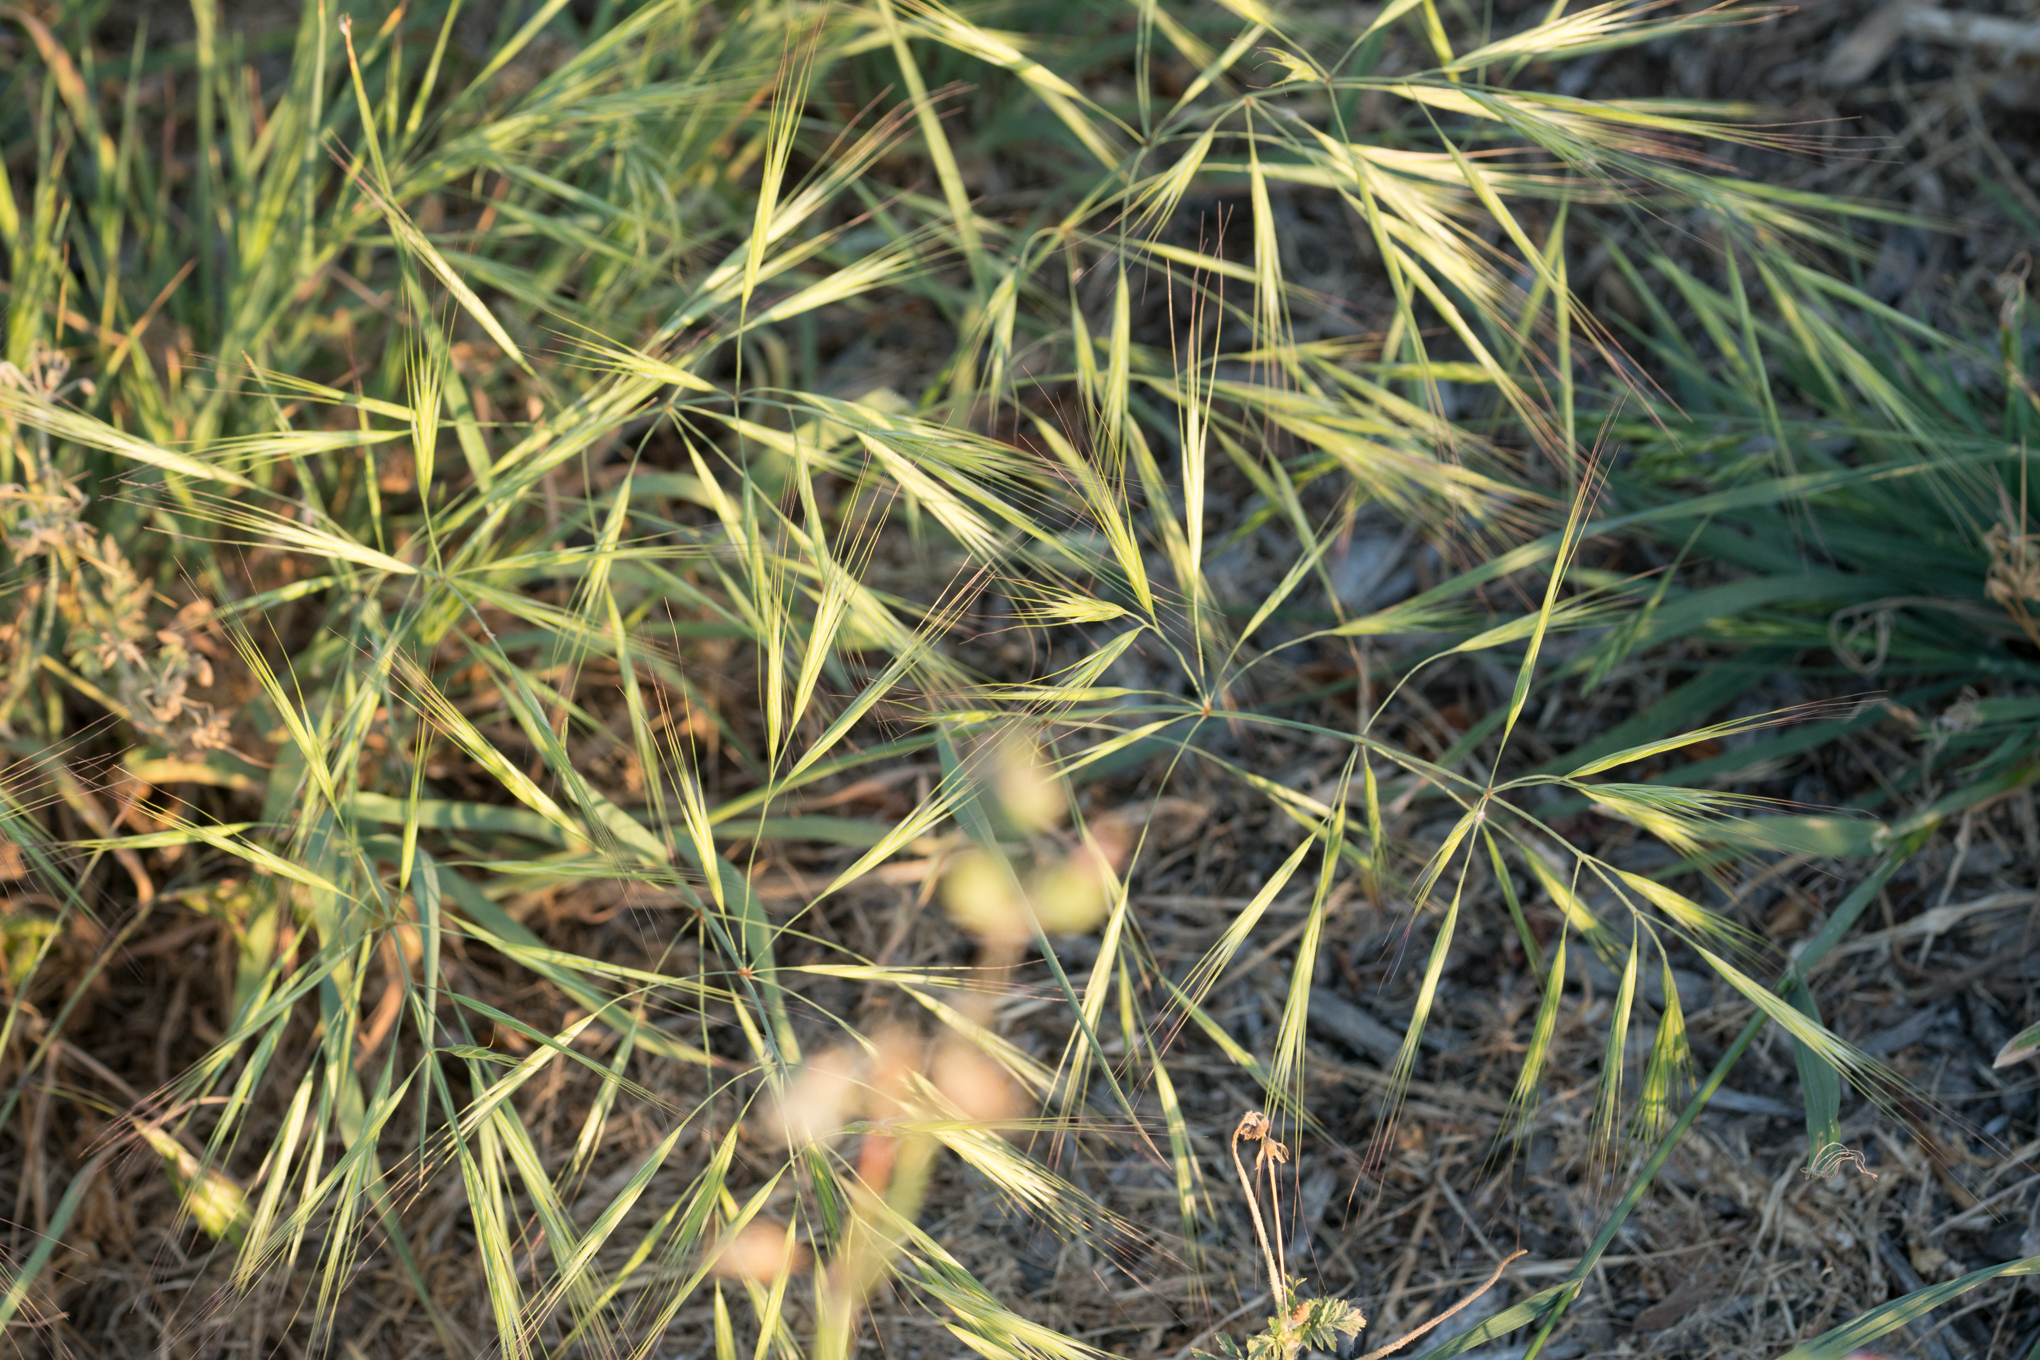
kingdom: Plantae
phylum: Tracheophyta
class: Liliopsida
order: Poales
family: Poaceae
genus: Bromus
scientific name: Bromus diandrus
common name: Ripgut brome
